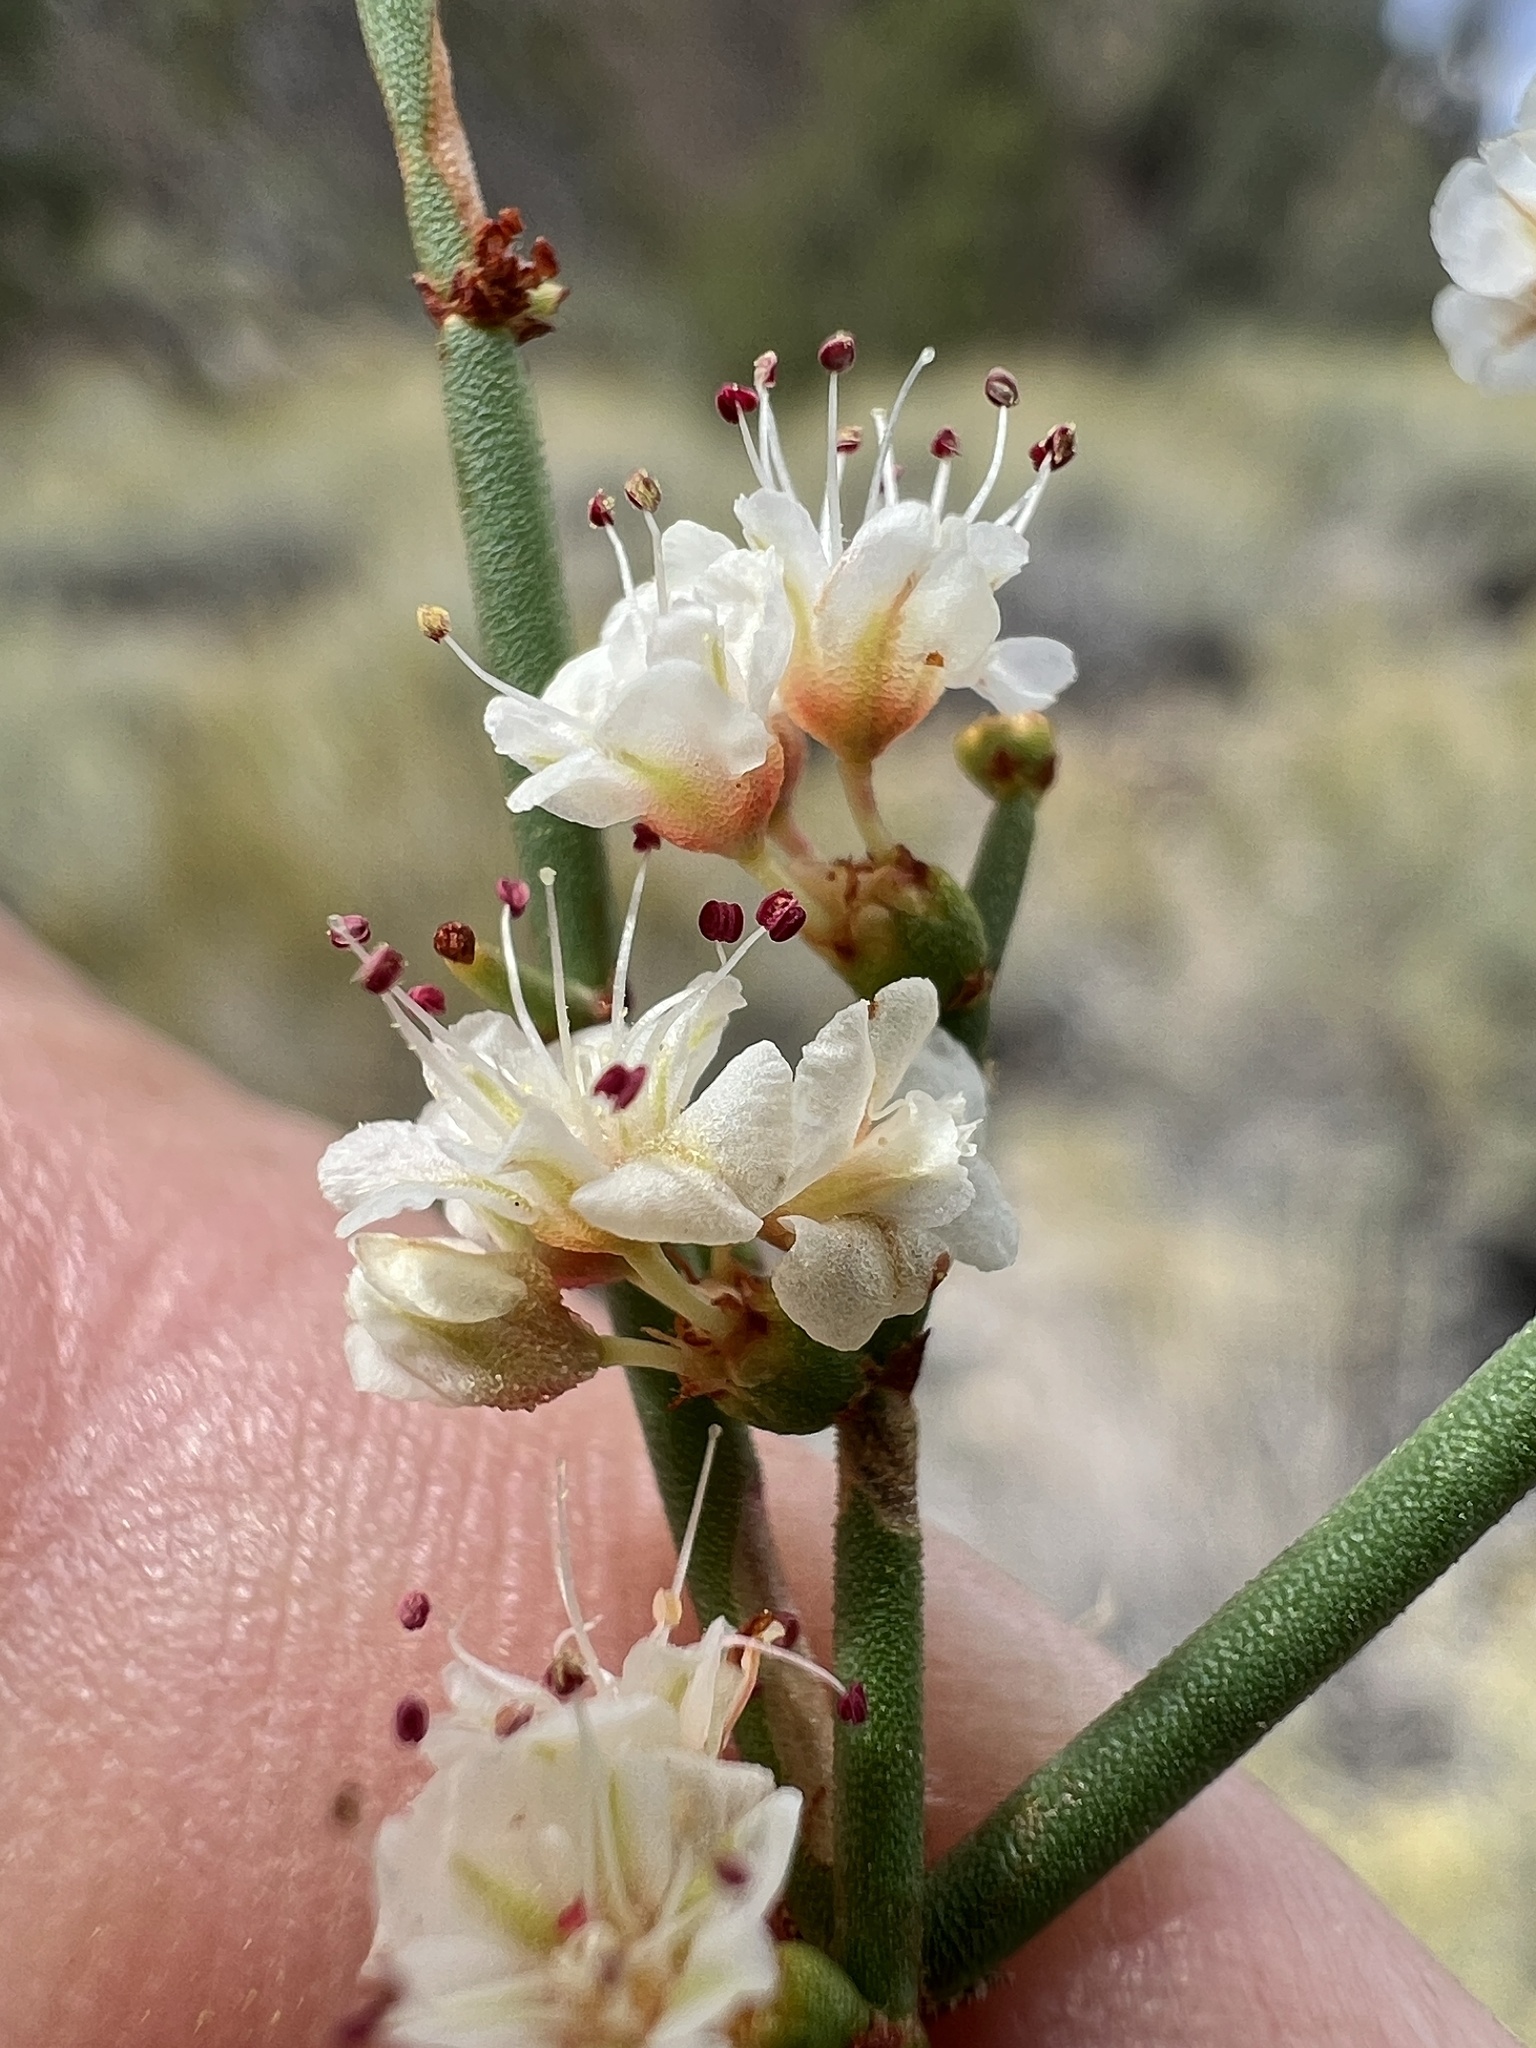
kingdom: Plantae
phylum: Tracheophyta
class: Magnoliopsida
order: Caryophyllales
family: Polygonaceae
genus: Eriogonum
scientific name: Eriogonum heermannii
